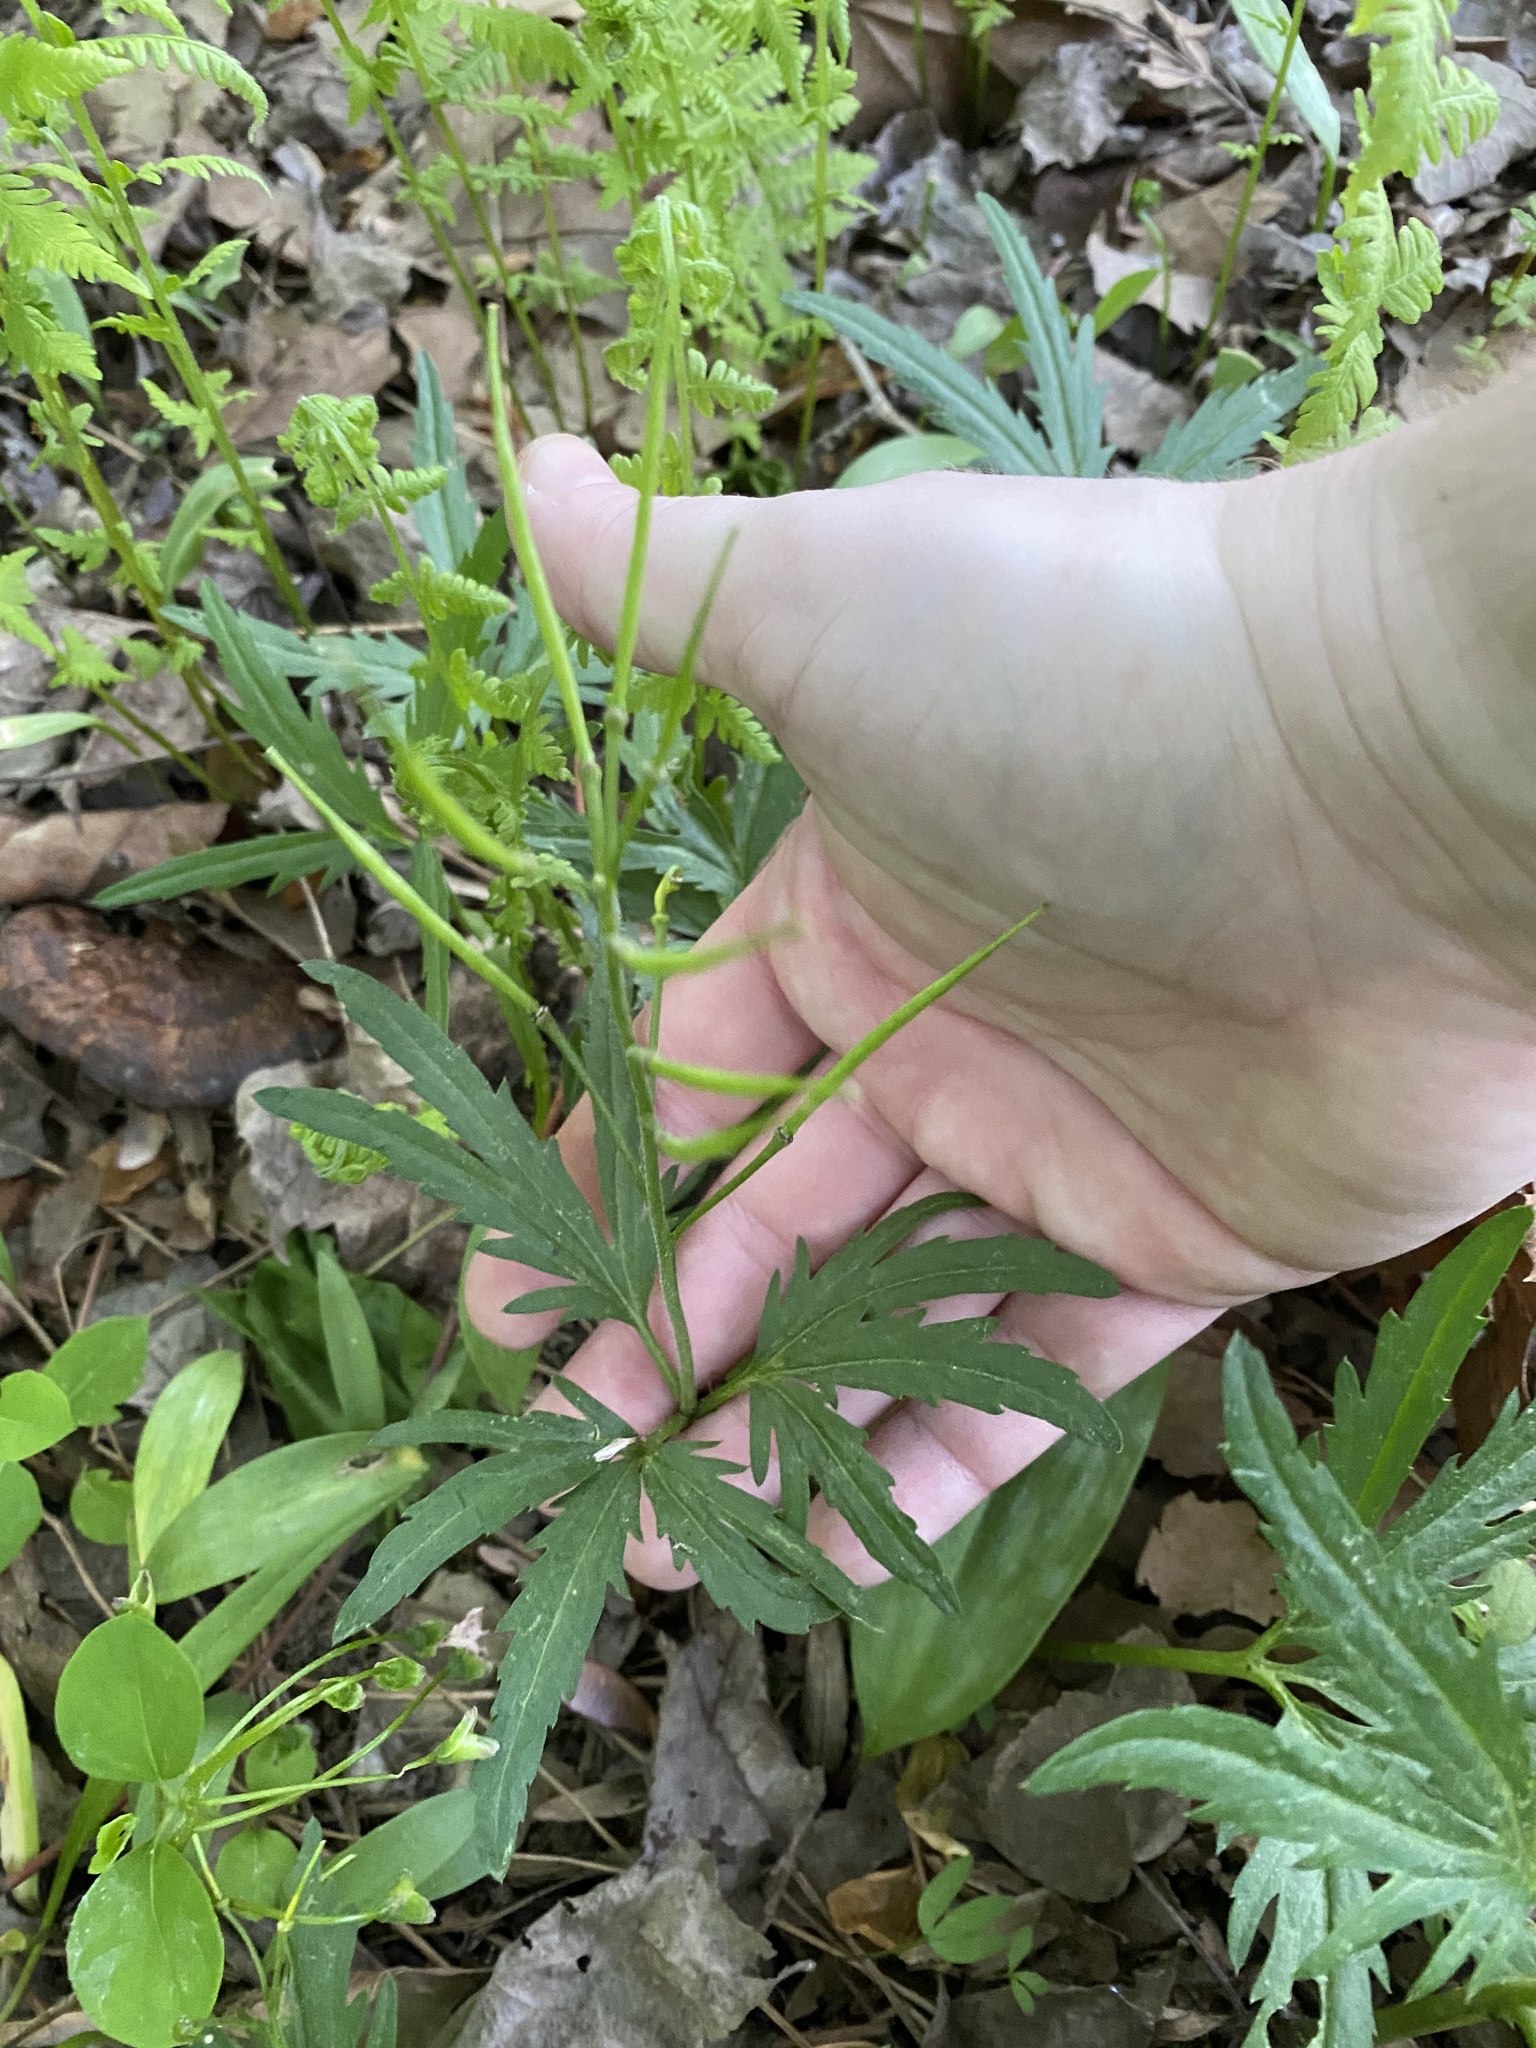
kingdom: Plantae
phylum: Tracheophyta
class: Magnoliopsida
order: Brassicales
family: Brassicaceae
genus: Cardamine
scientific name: Cardamine concatenata
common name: Cut-leaf toothcup
